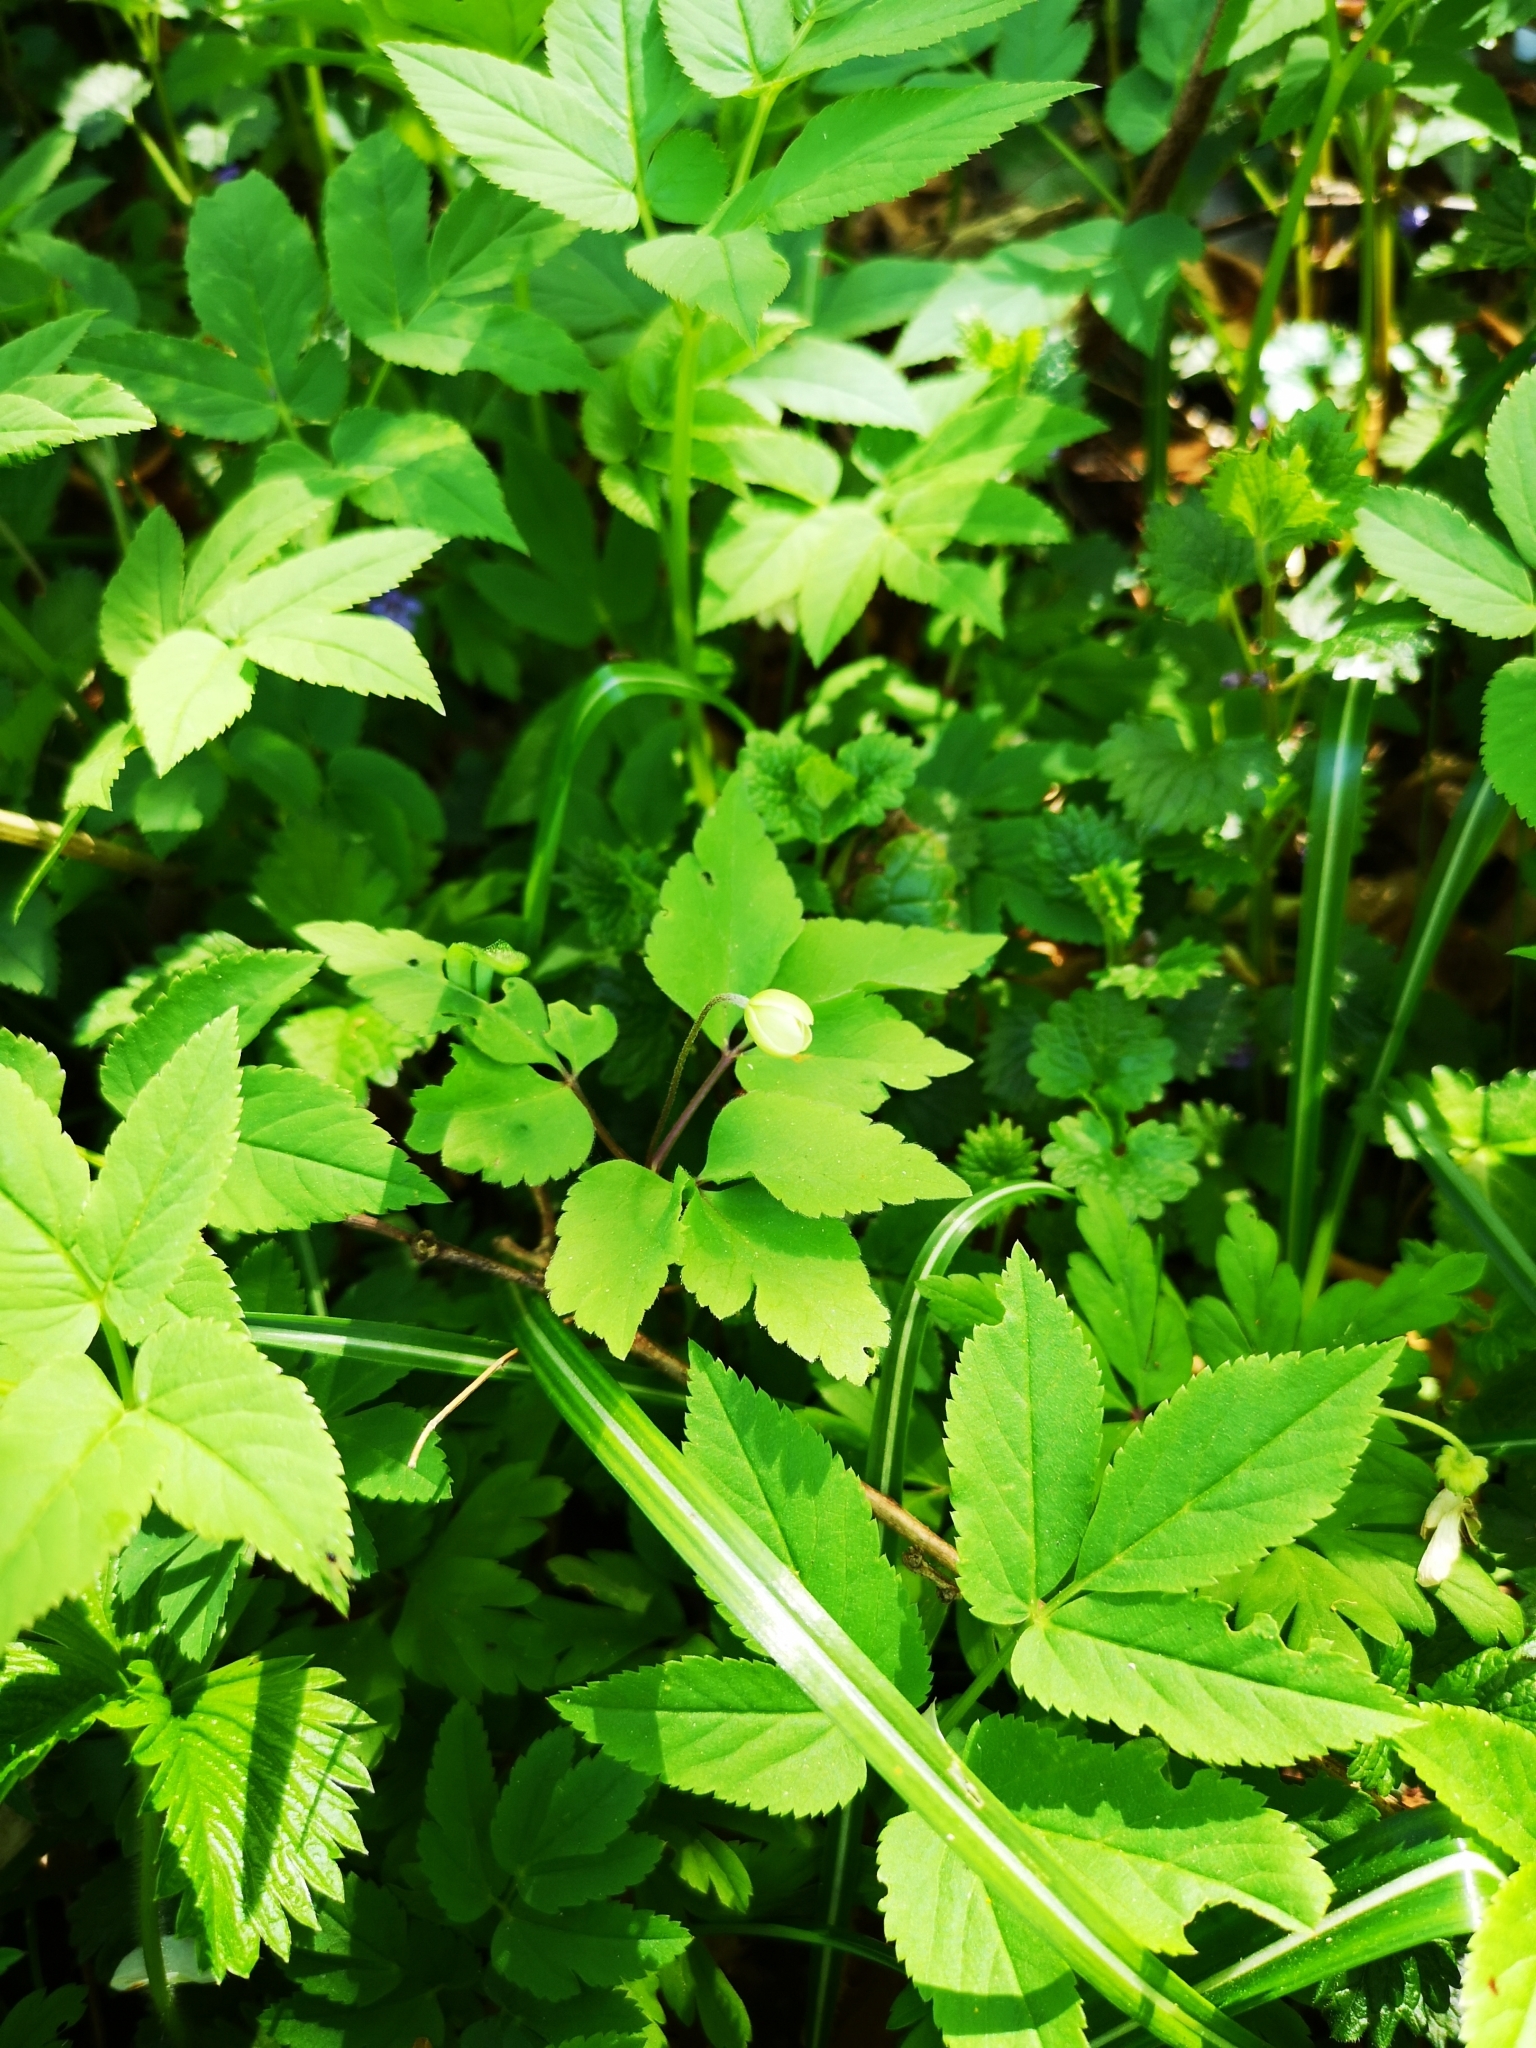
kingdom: Plantae
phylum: Tracheophyta
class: Magnoliopsida
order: Ranunculales
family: Ranunculaceae
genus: Anemone
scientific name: Anemone pittonii
